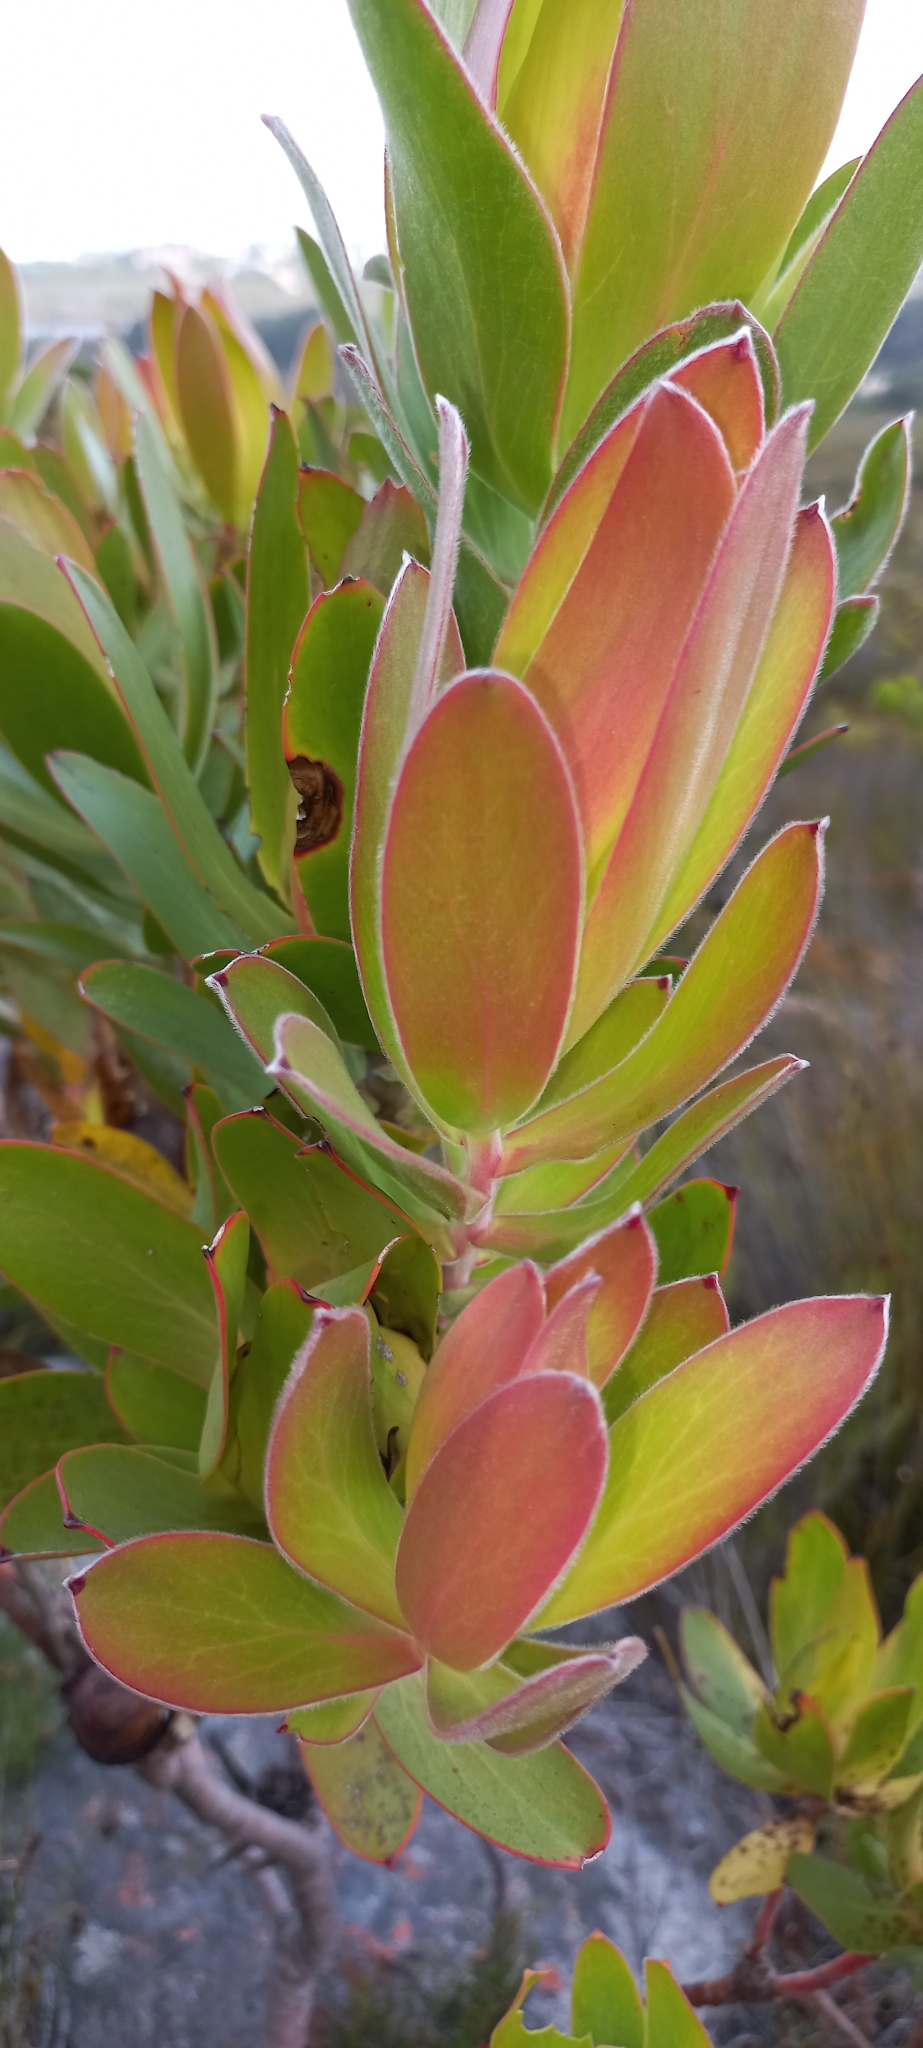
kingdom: Plantae
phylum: Tracheophyta
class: Magnoliopsida
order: Proteales
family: Proteaceae
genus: Leucadendron
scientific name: Leucadendron gandogeri
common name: Broad-leaf conebush
